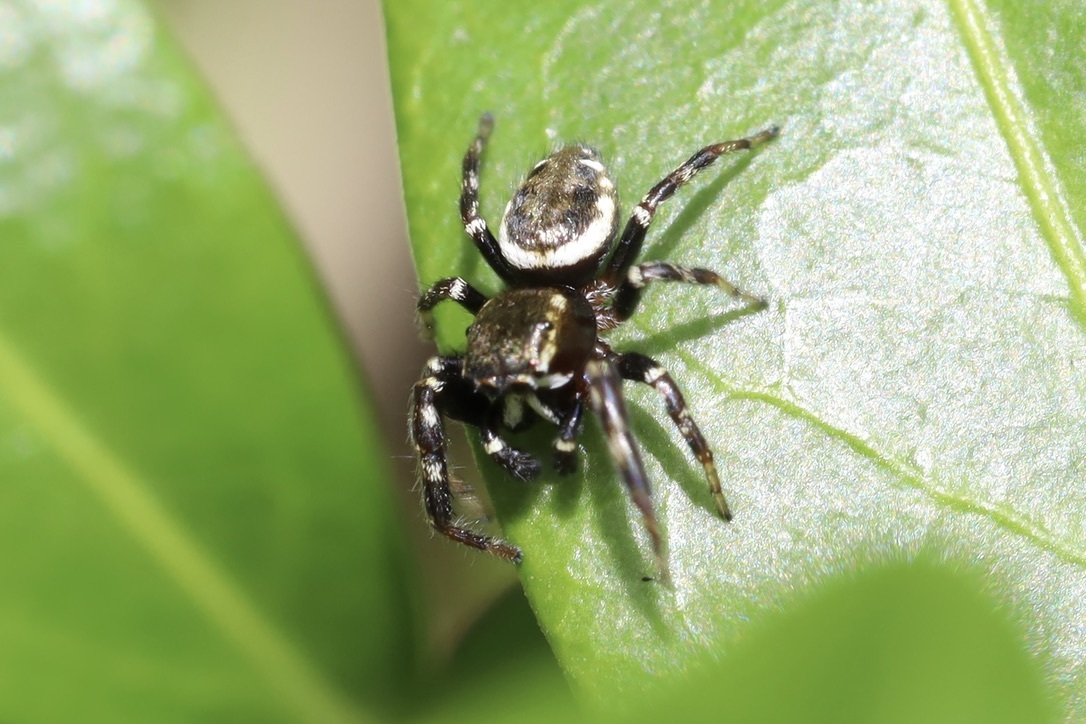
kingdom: Animalia
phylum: Arthropoda
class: Arachnida
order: Araneae
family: Salticidae
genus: Metaphidippus
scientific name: Metaphidippus manni
